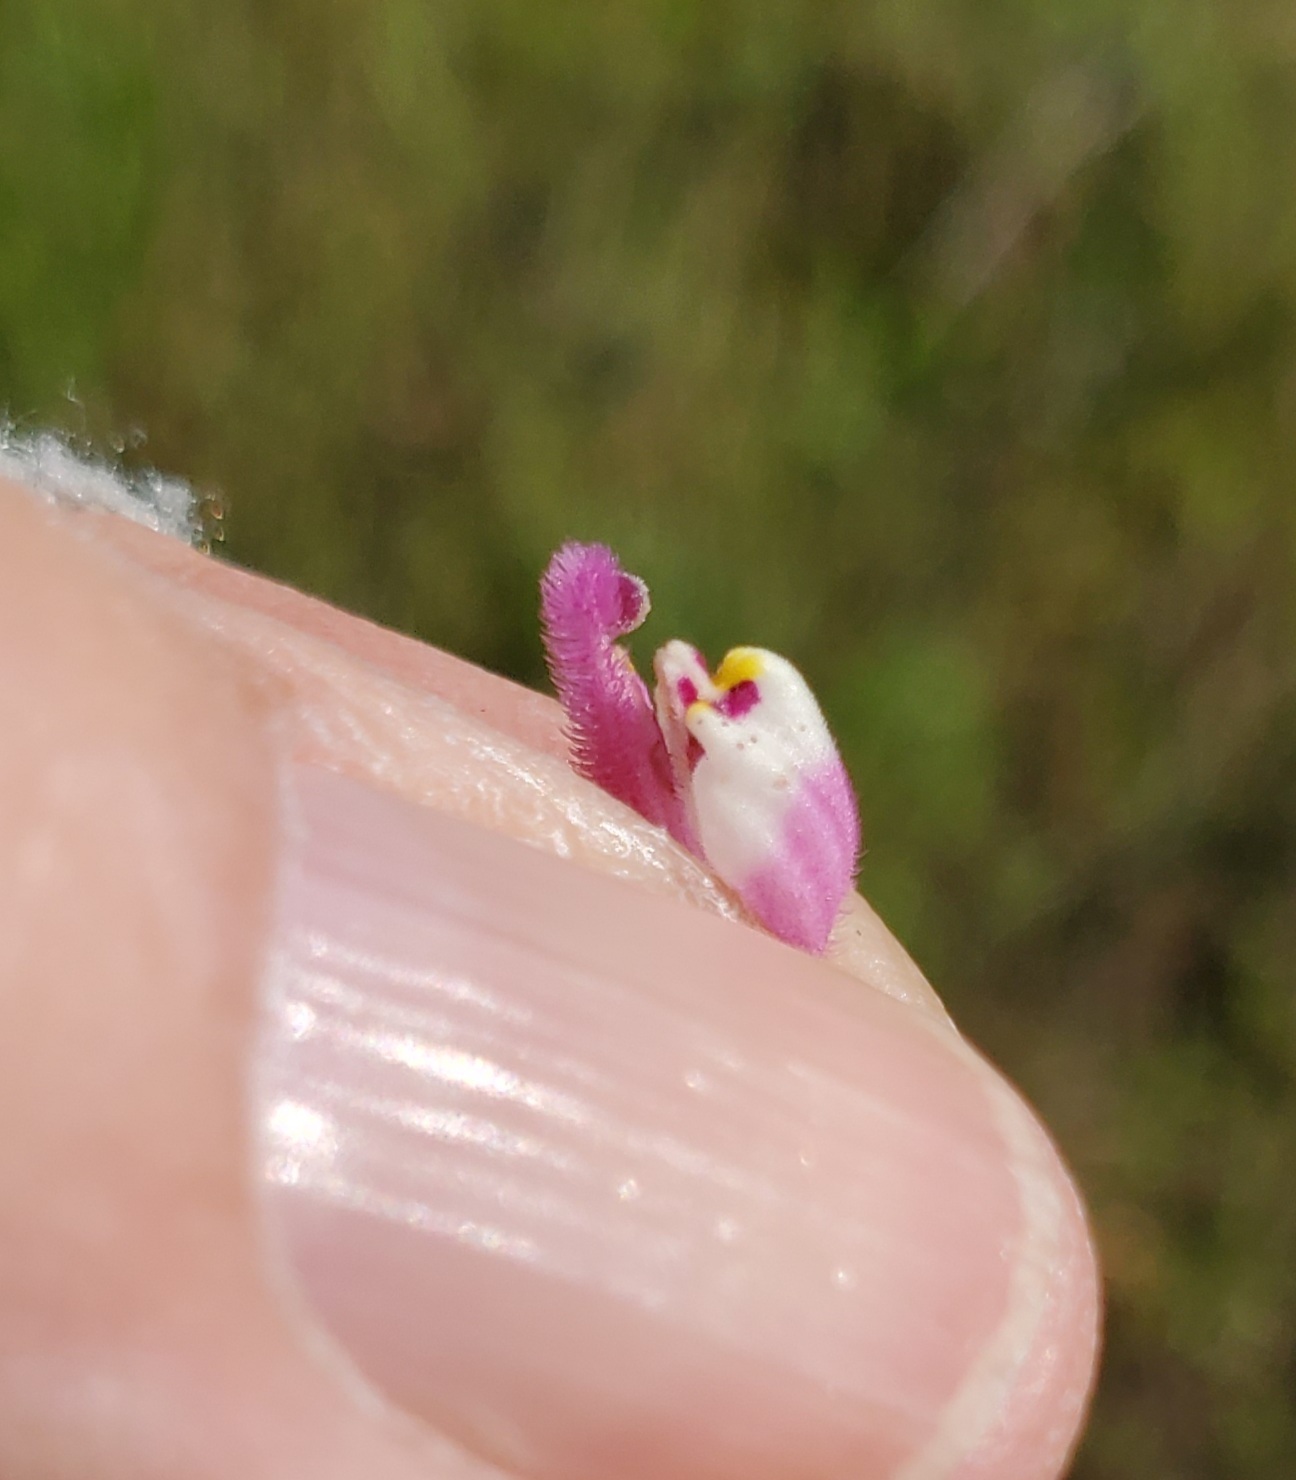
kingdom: Plantae
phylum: Tracheophyta
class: Magnoliopsida
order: Lamiales
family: Orobanchaceae
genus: Castilleja
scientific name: Castilleja exserta
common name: Purple owl-clover
